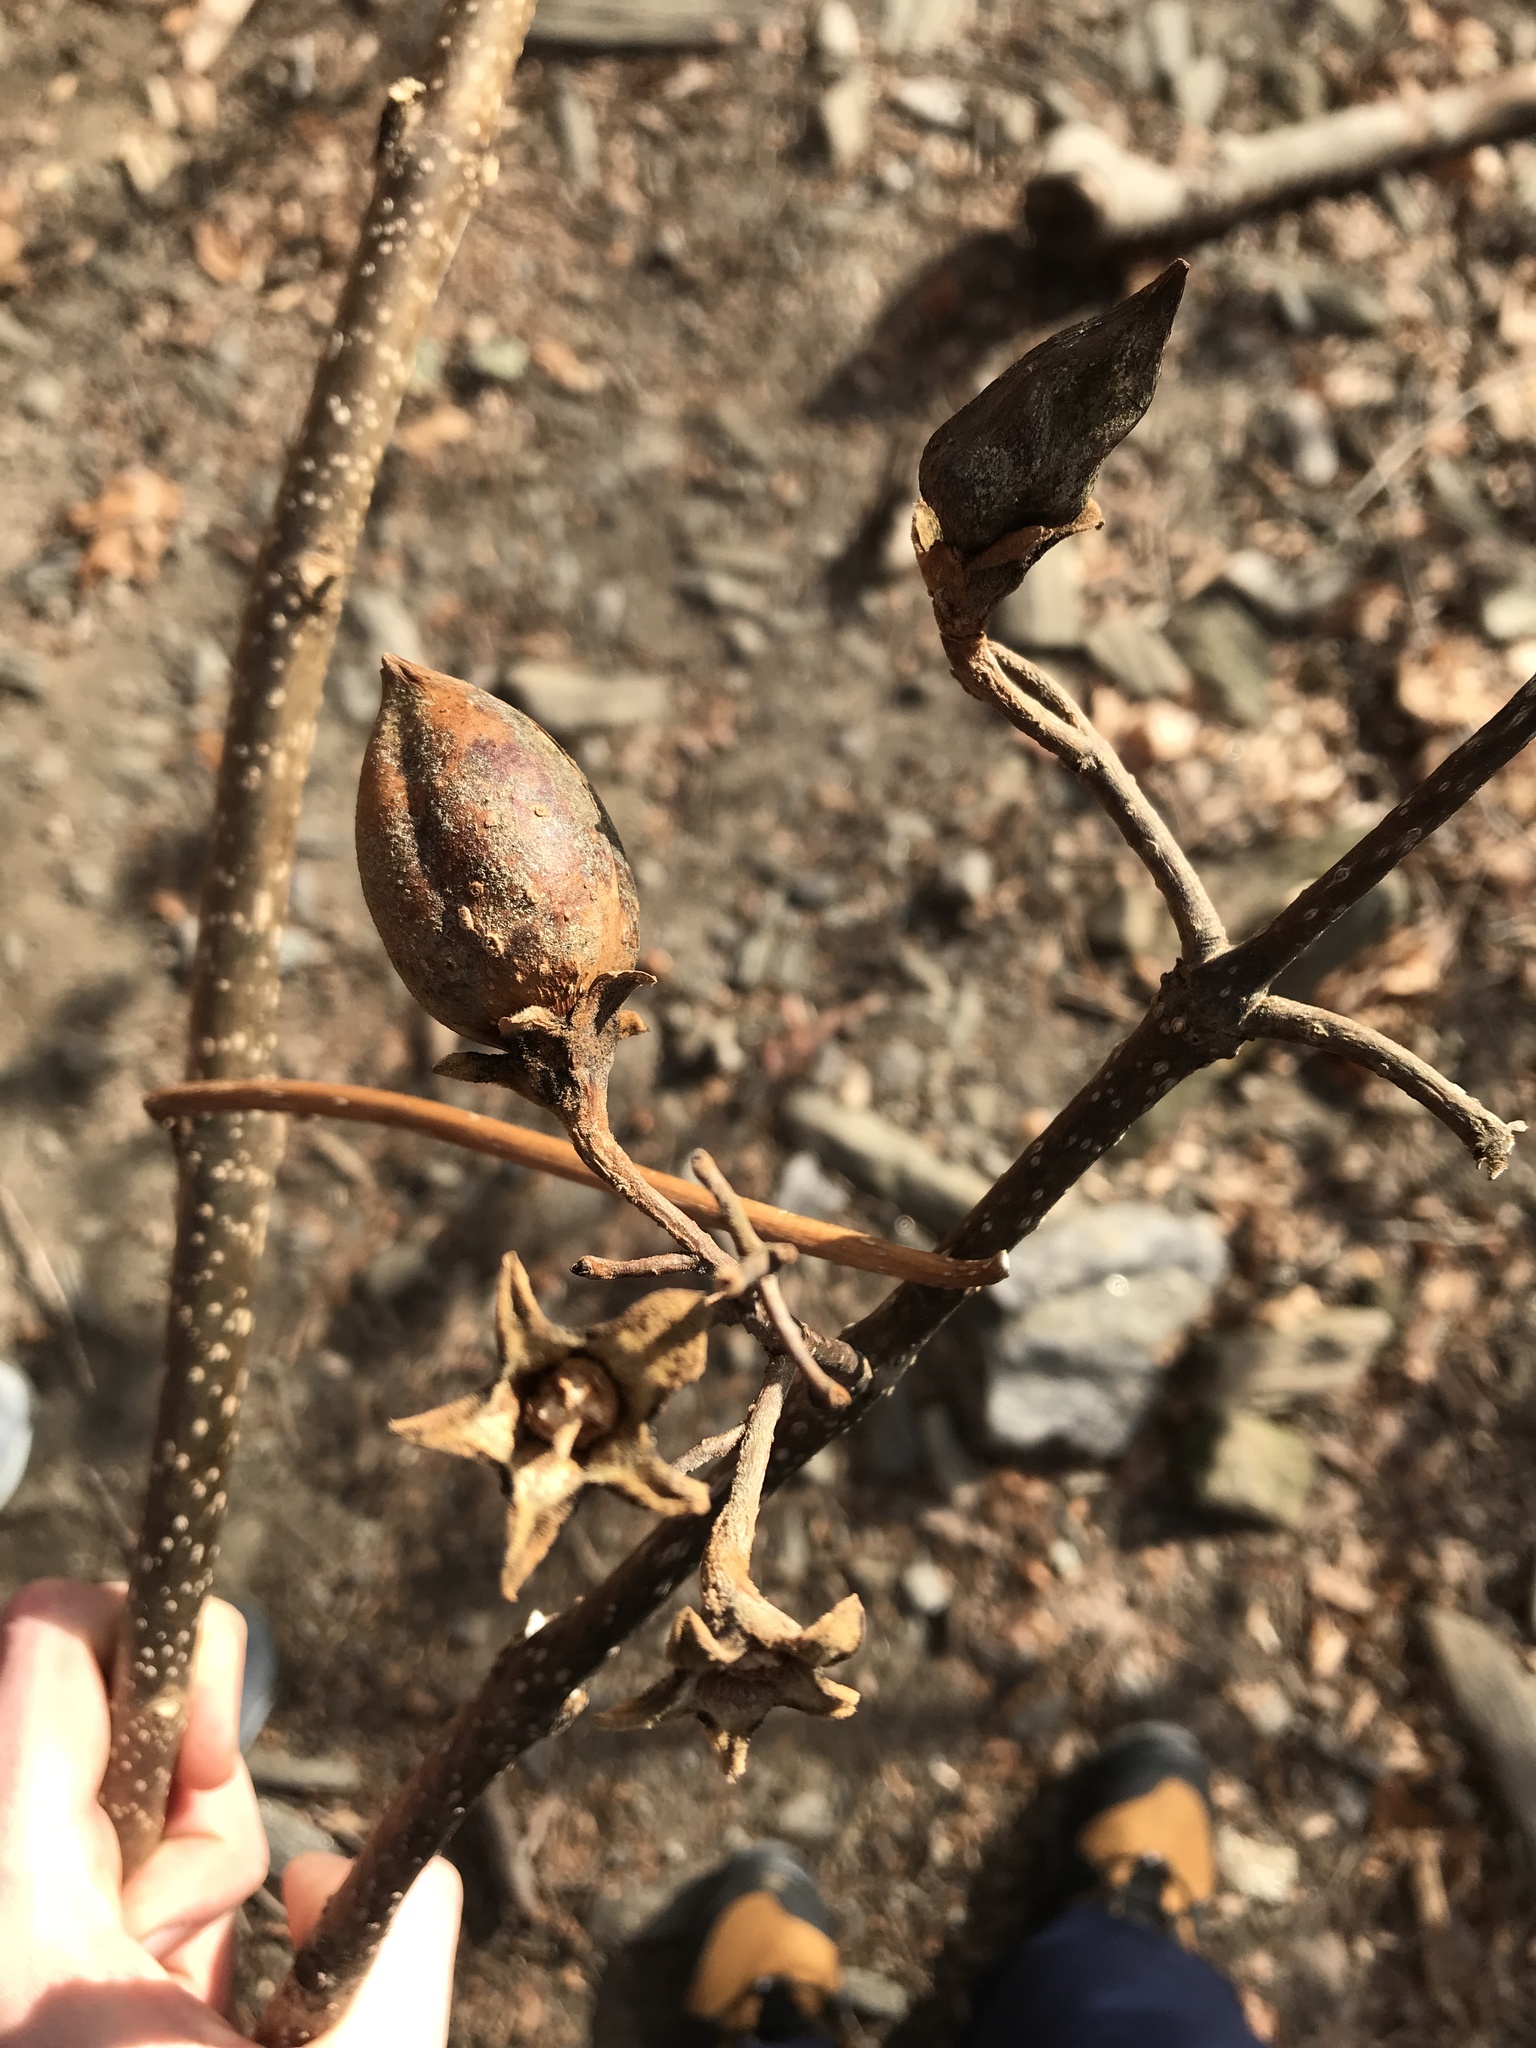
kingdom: Plantae
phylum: Tracheophyta
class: Magnoliopsida
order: Lamiales
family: Paulowniaceae
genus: Paulownia
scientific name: Paulownia tomentosa
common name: Foxglove-tree
